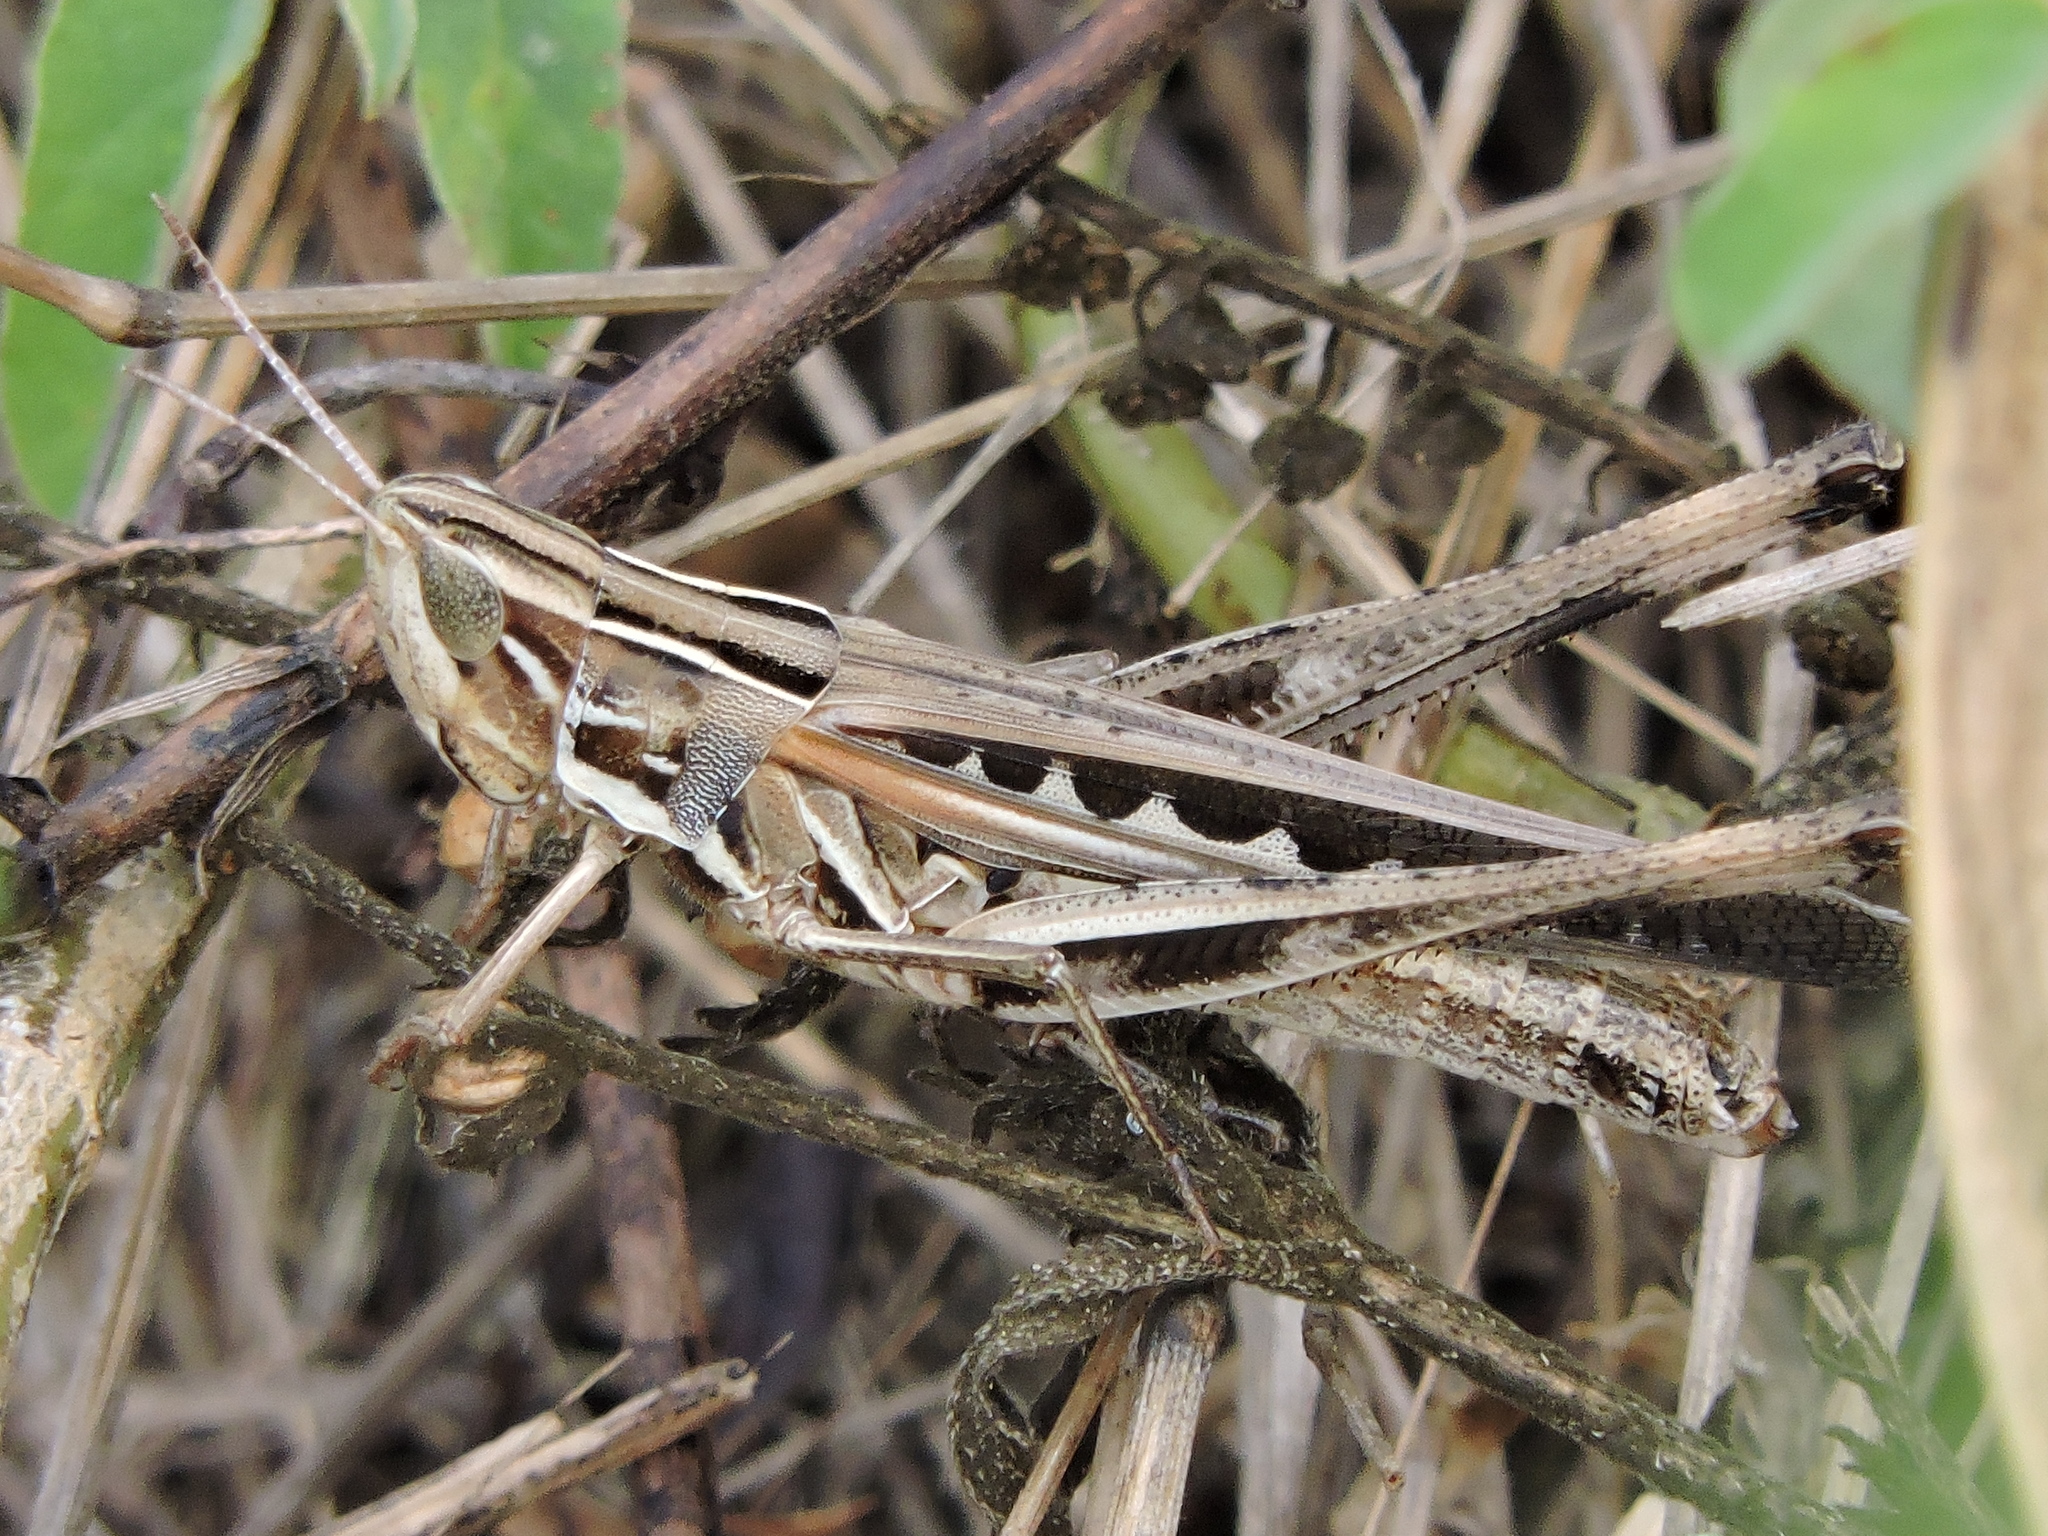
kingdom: Animalia
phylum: Arthropoda
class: Insecta
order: Orthoptera
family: Acrididae
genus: Syrbula
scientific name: Syrbula admirabilis
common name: Handsome grasshopper
